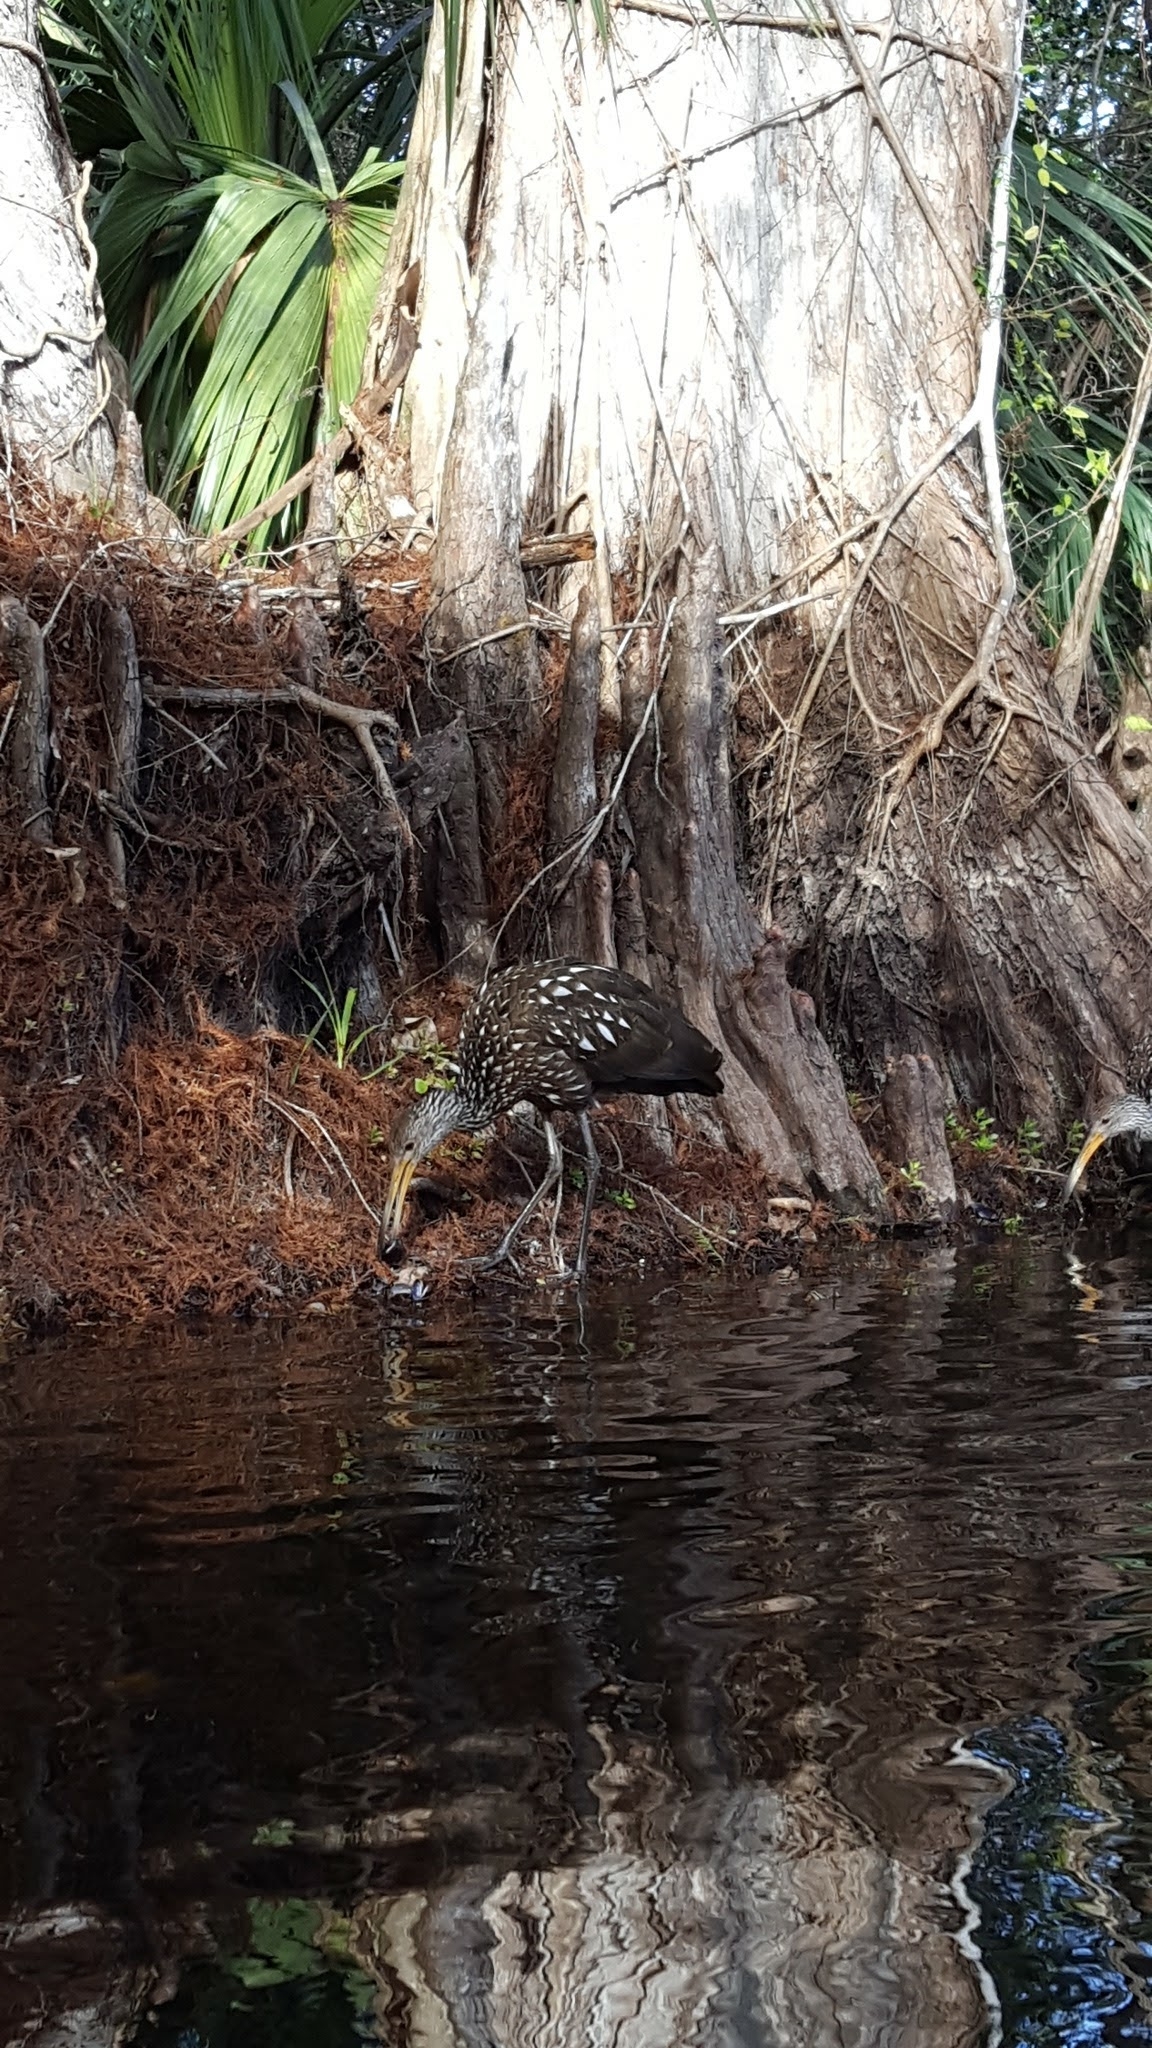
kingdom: Animalia
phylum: Chordata
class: Aves
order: Gruiformes
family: Aramidae
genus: Aramus
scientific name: Aramus guarauna
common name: Limpkin
